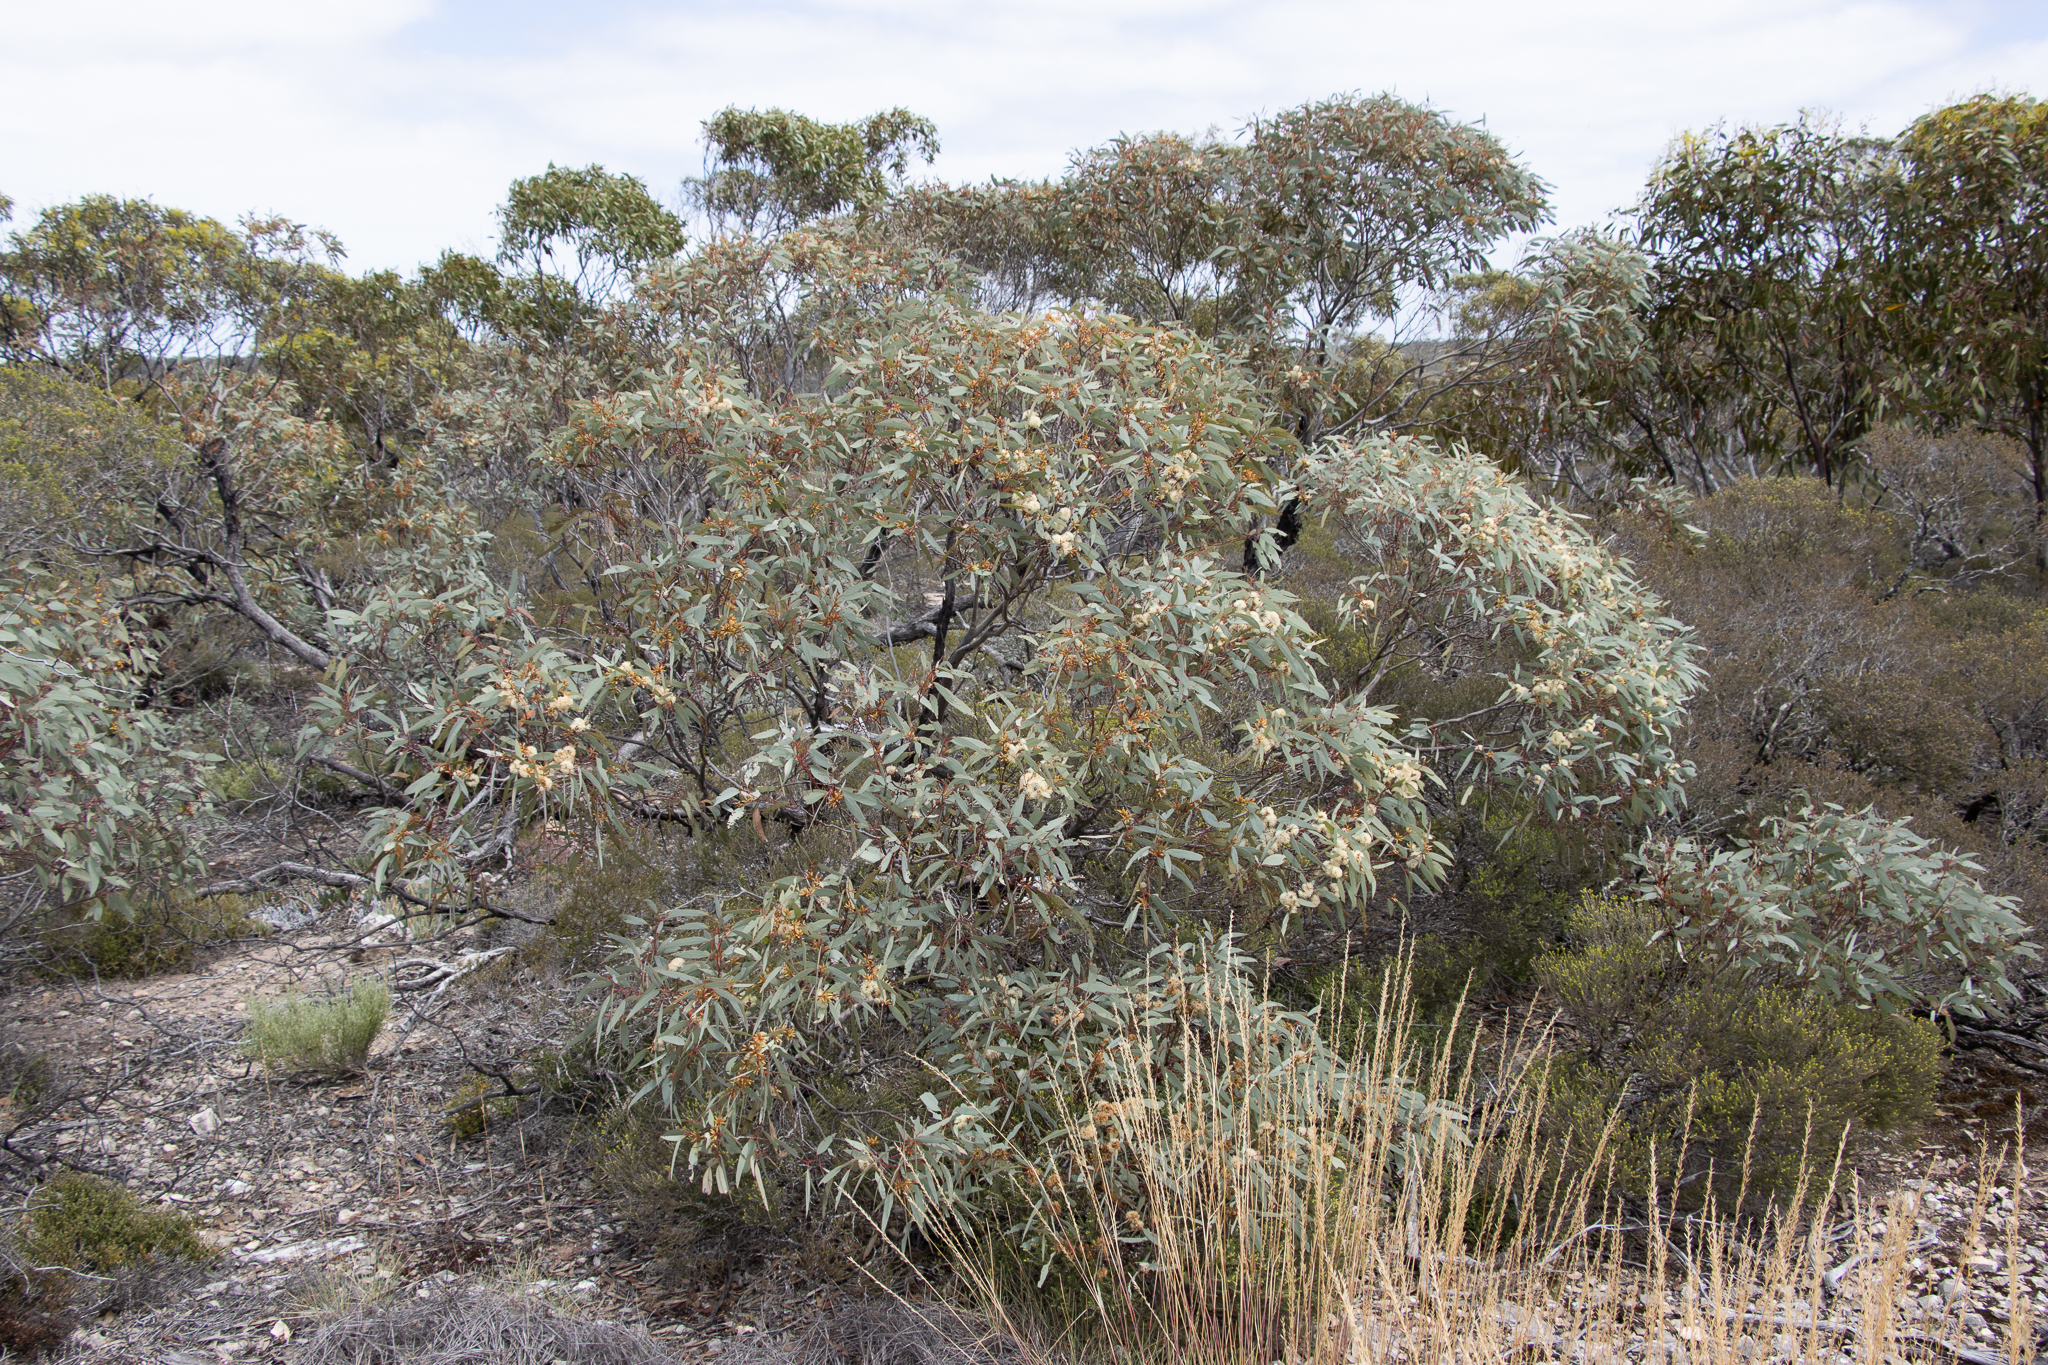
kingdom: Plantae
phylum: Tracheophyta
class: Magnoliopsida
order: Myrtales
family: Myrtaceae
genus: Eucalyptus
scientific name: Eucalyptus yalatensis
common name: Yalata mallee
